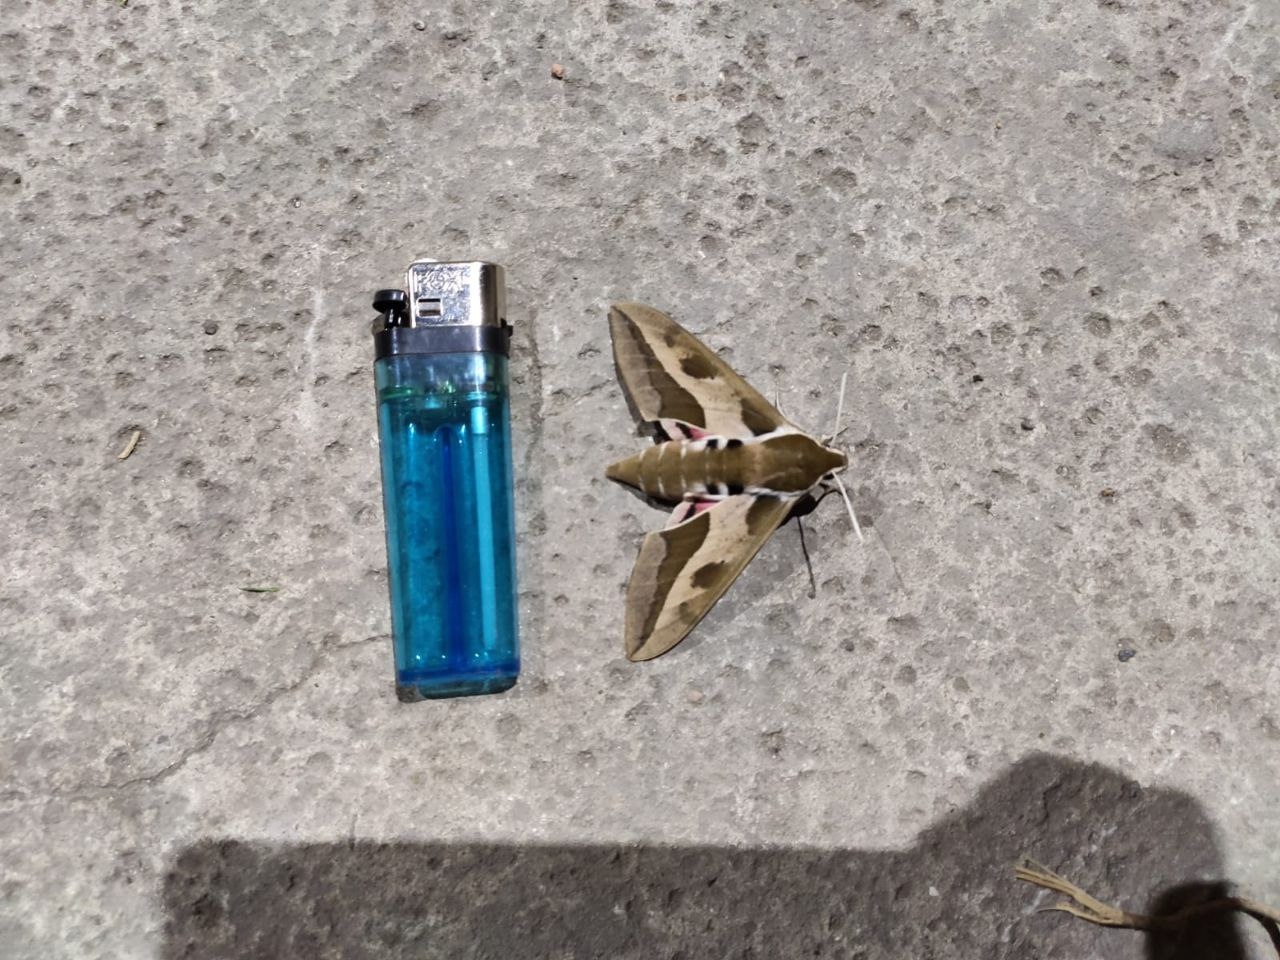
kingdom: Animalia
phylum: Arthropoda
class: Insecta
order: Lepidoptera
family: Sphingidae
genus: Hyles
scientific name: Hyles euphorbiae
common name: Spurge hawk-moth
